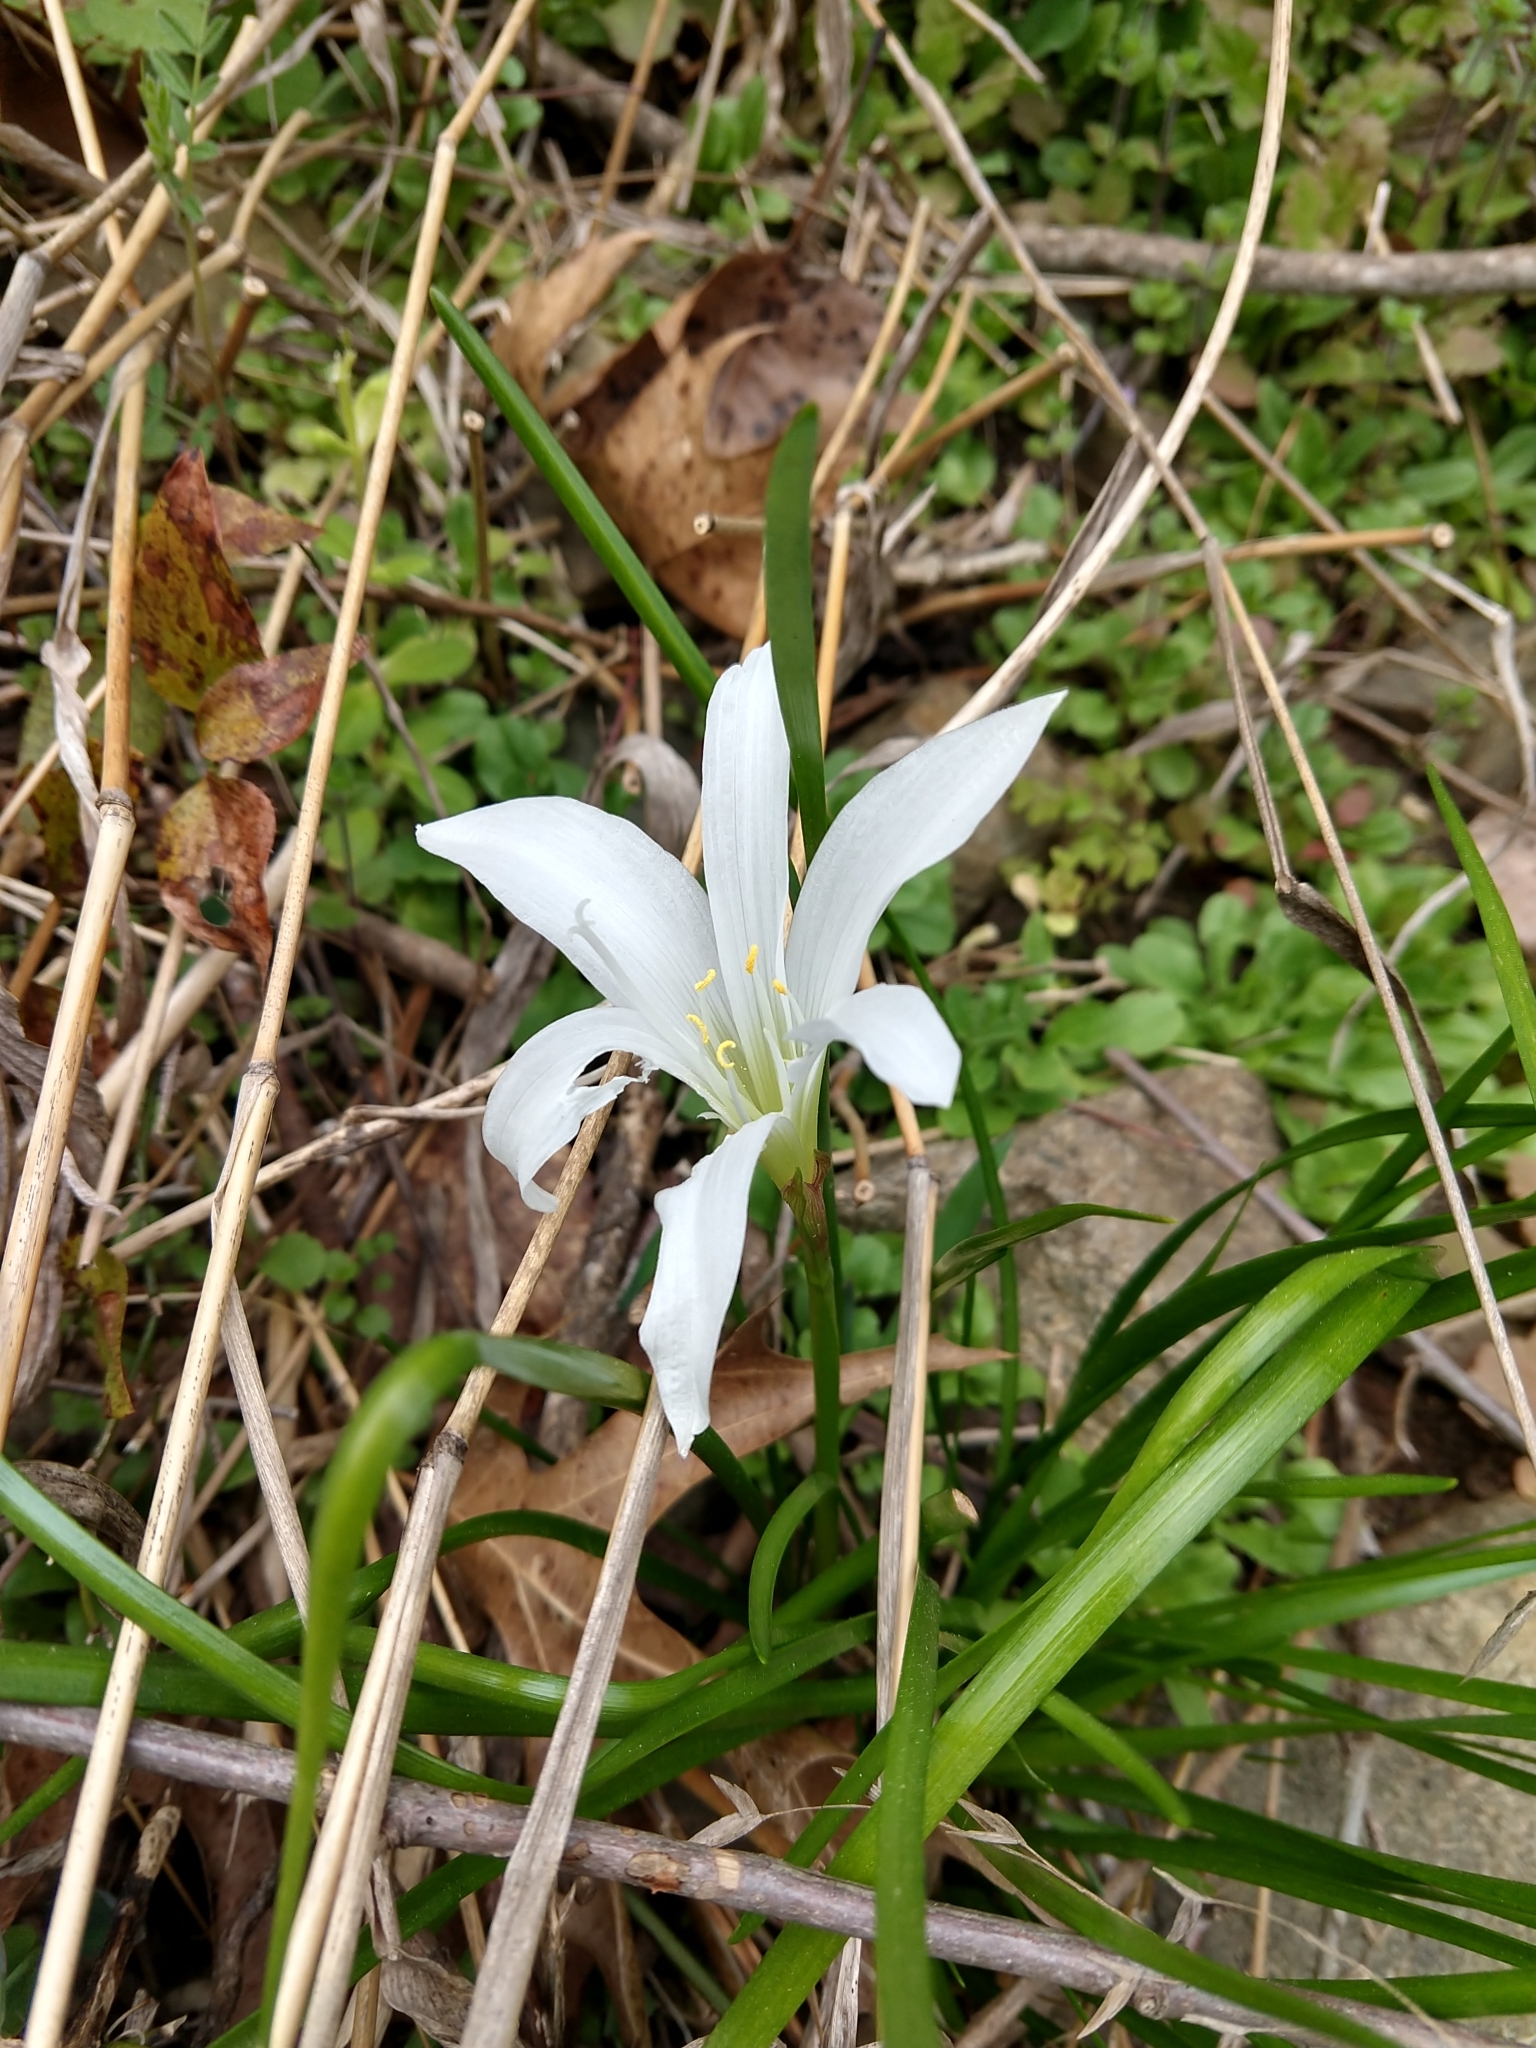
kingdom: Plantae
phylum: Tracheophyta
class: Liliopsida
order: Asparagales
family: Amaryllidaceae
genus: Zephyranthes
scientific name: Zephyranthes atamasco
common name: Atamasco lily
